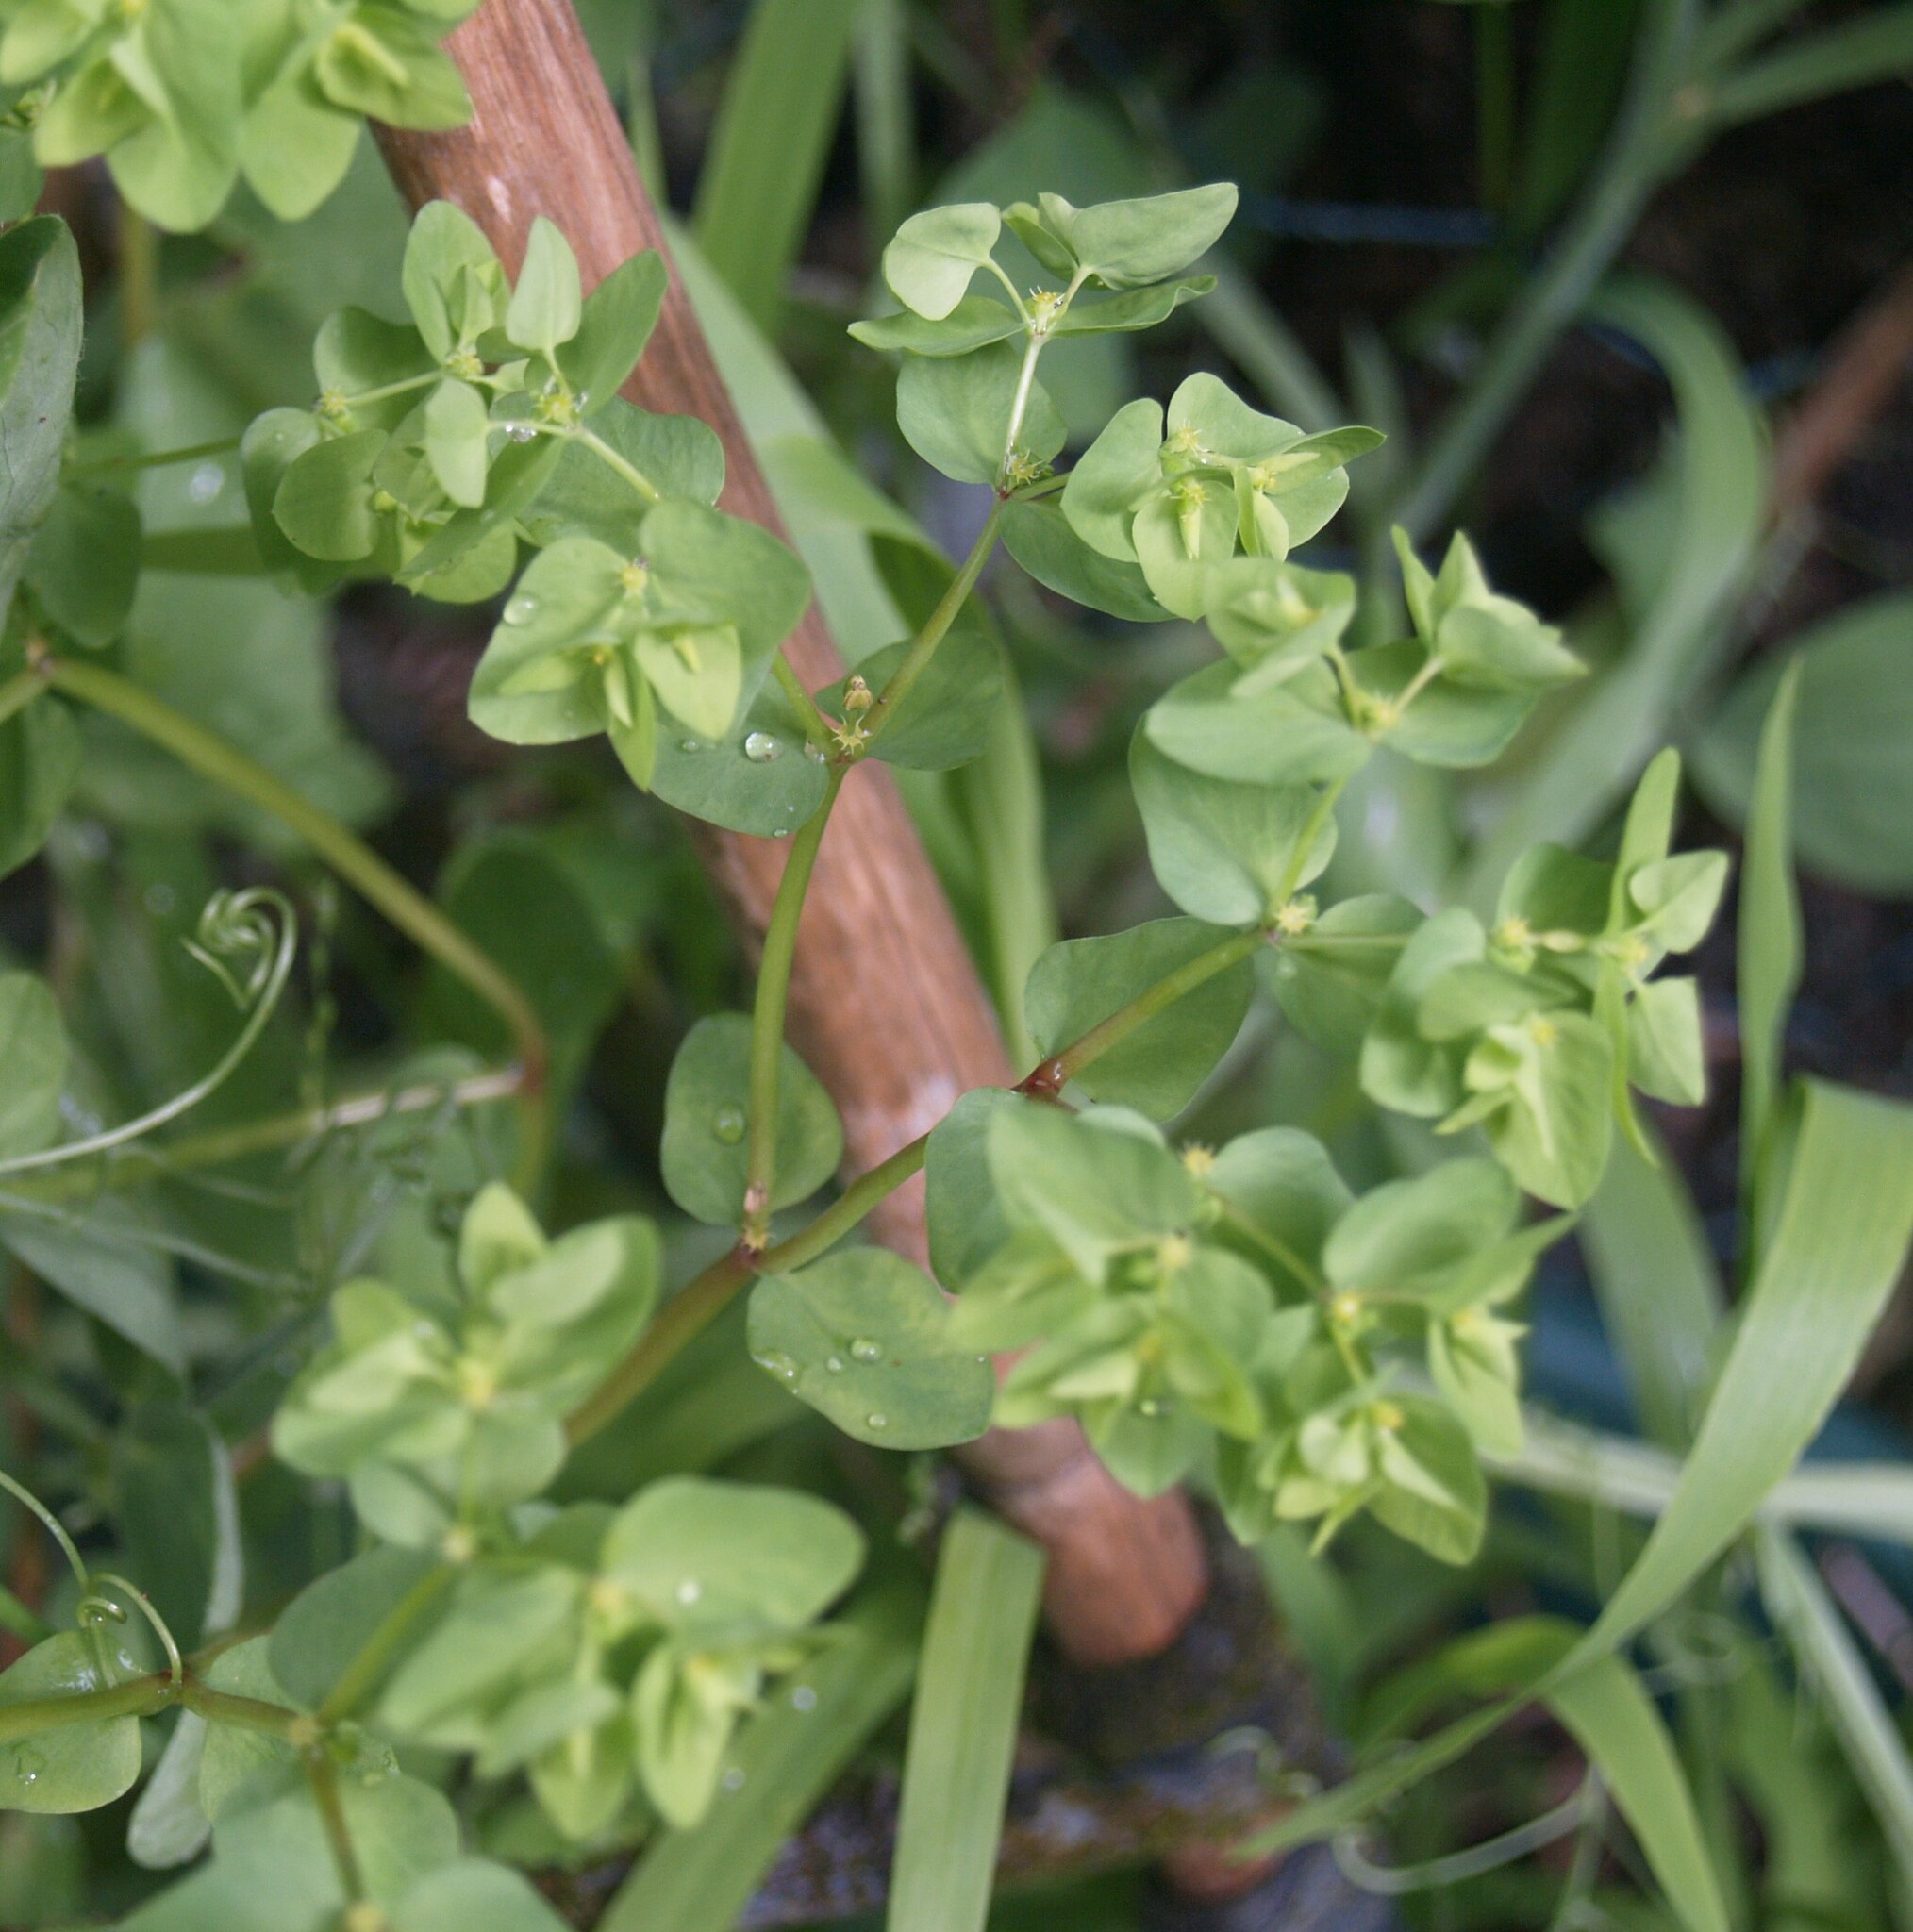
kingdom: Plantae
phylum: Tracheophyta
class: Magnoliopsida
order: Malpighiales
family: Euphorbiaceae
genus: Euphorbia
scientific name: Euphorbia peplus
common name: Petty spurge
